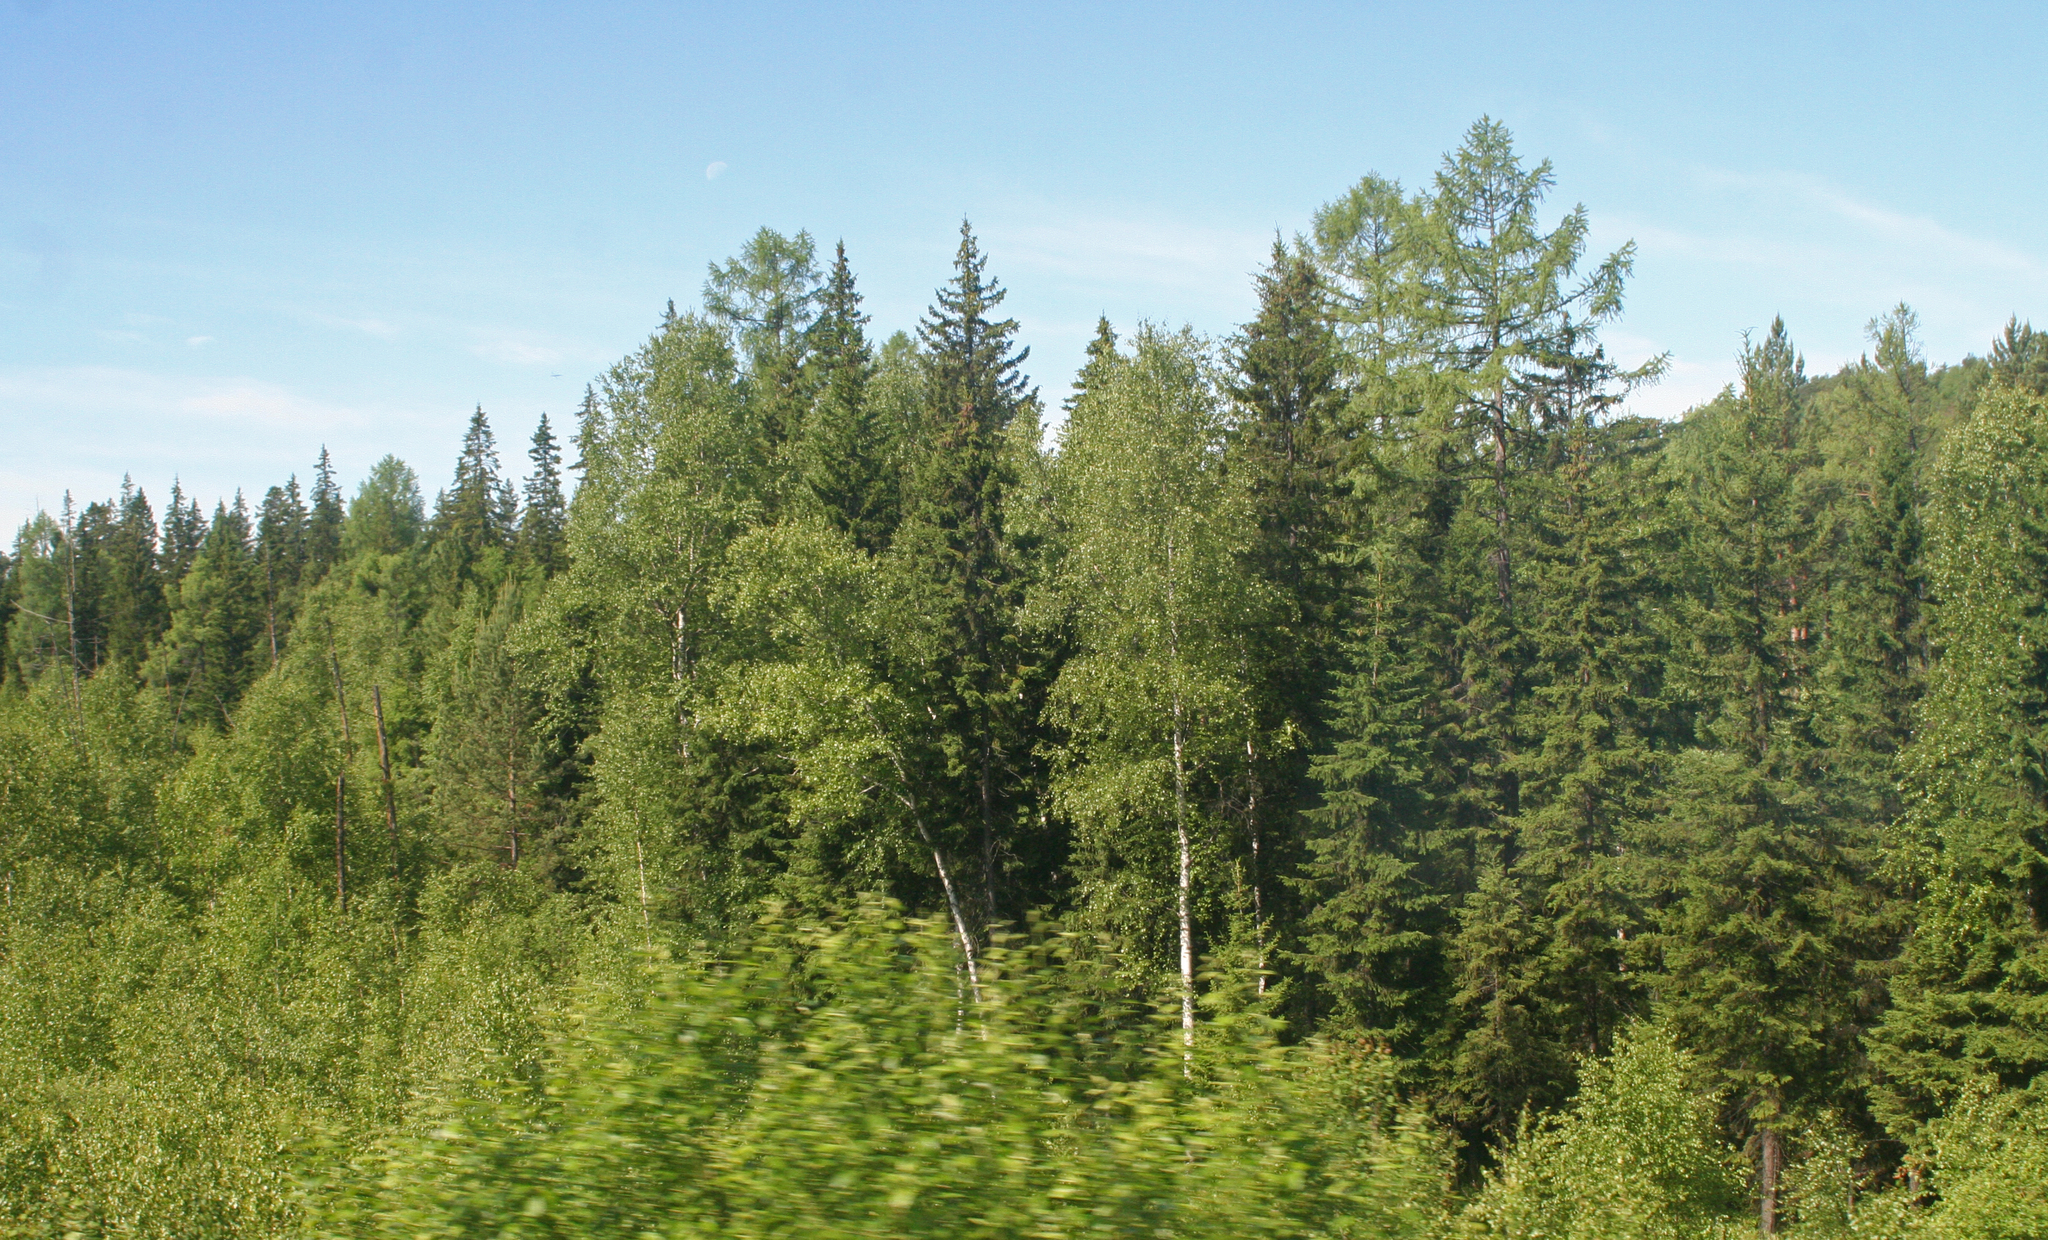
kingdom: Plantae
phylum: Tracheophyta
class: Pinopsida
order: Pinales
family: Pinaceae
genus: Picea
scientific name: Picea obovata
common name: Siberian spruce
